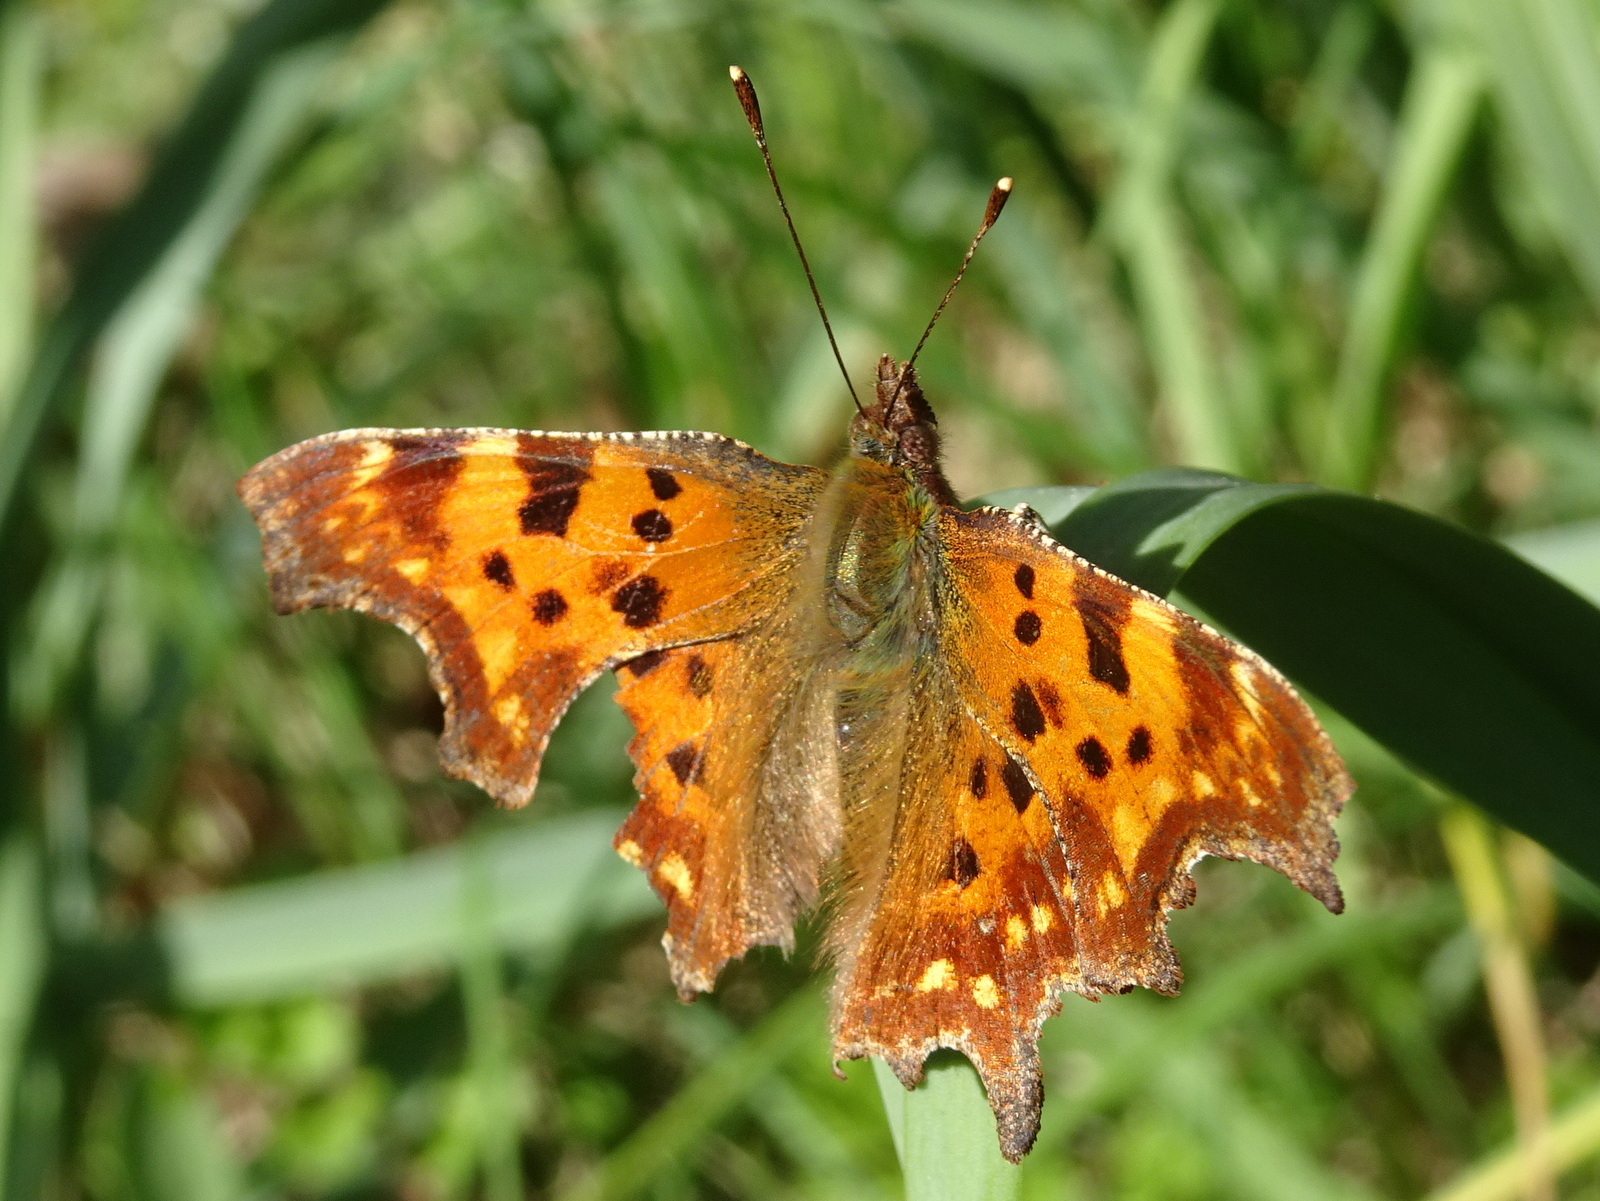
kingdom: Animalia
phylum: Arthropoda
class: Insecta
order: Lepidoptera
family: Nymphalidae
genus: Polygonia
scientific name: Polygonia c-album
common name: Comma
